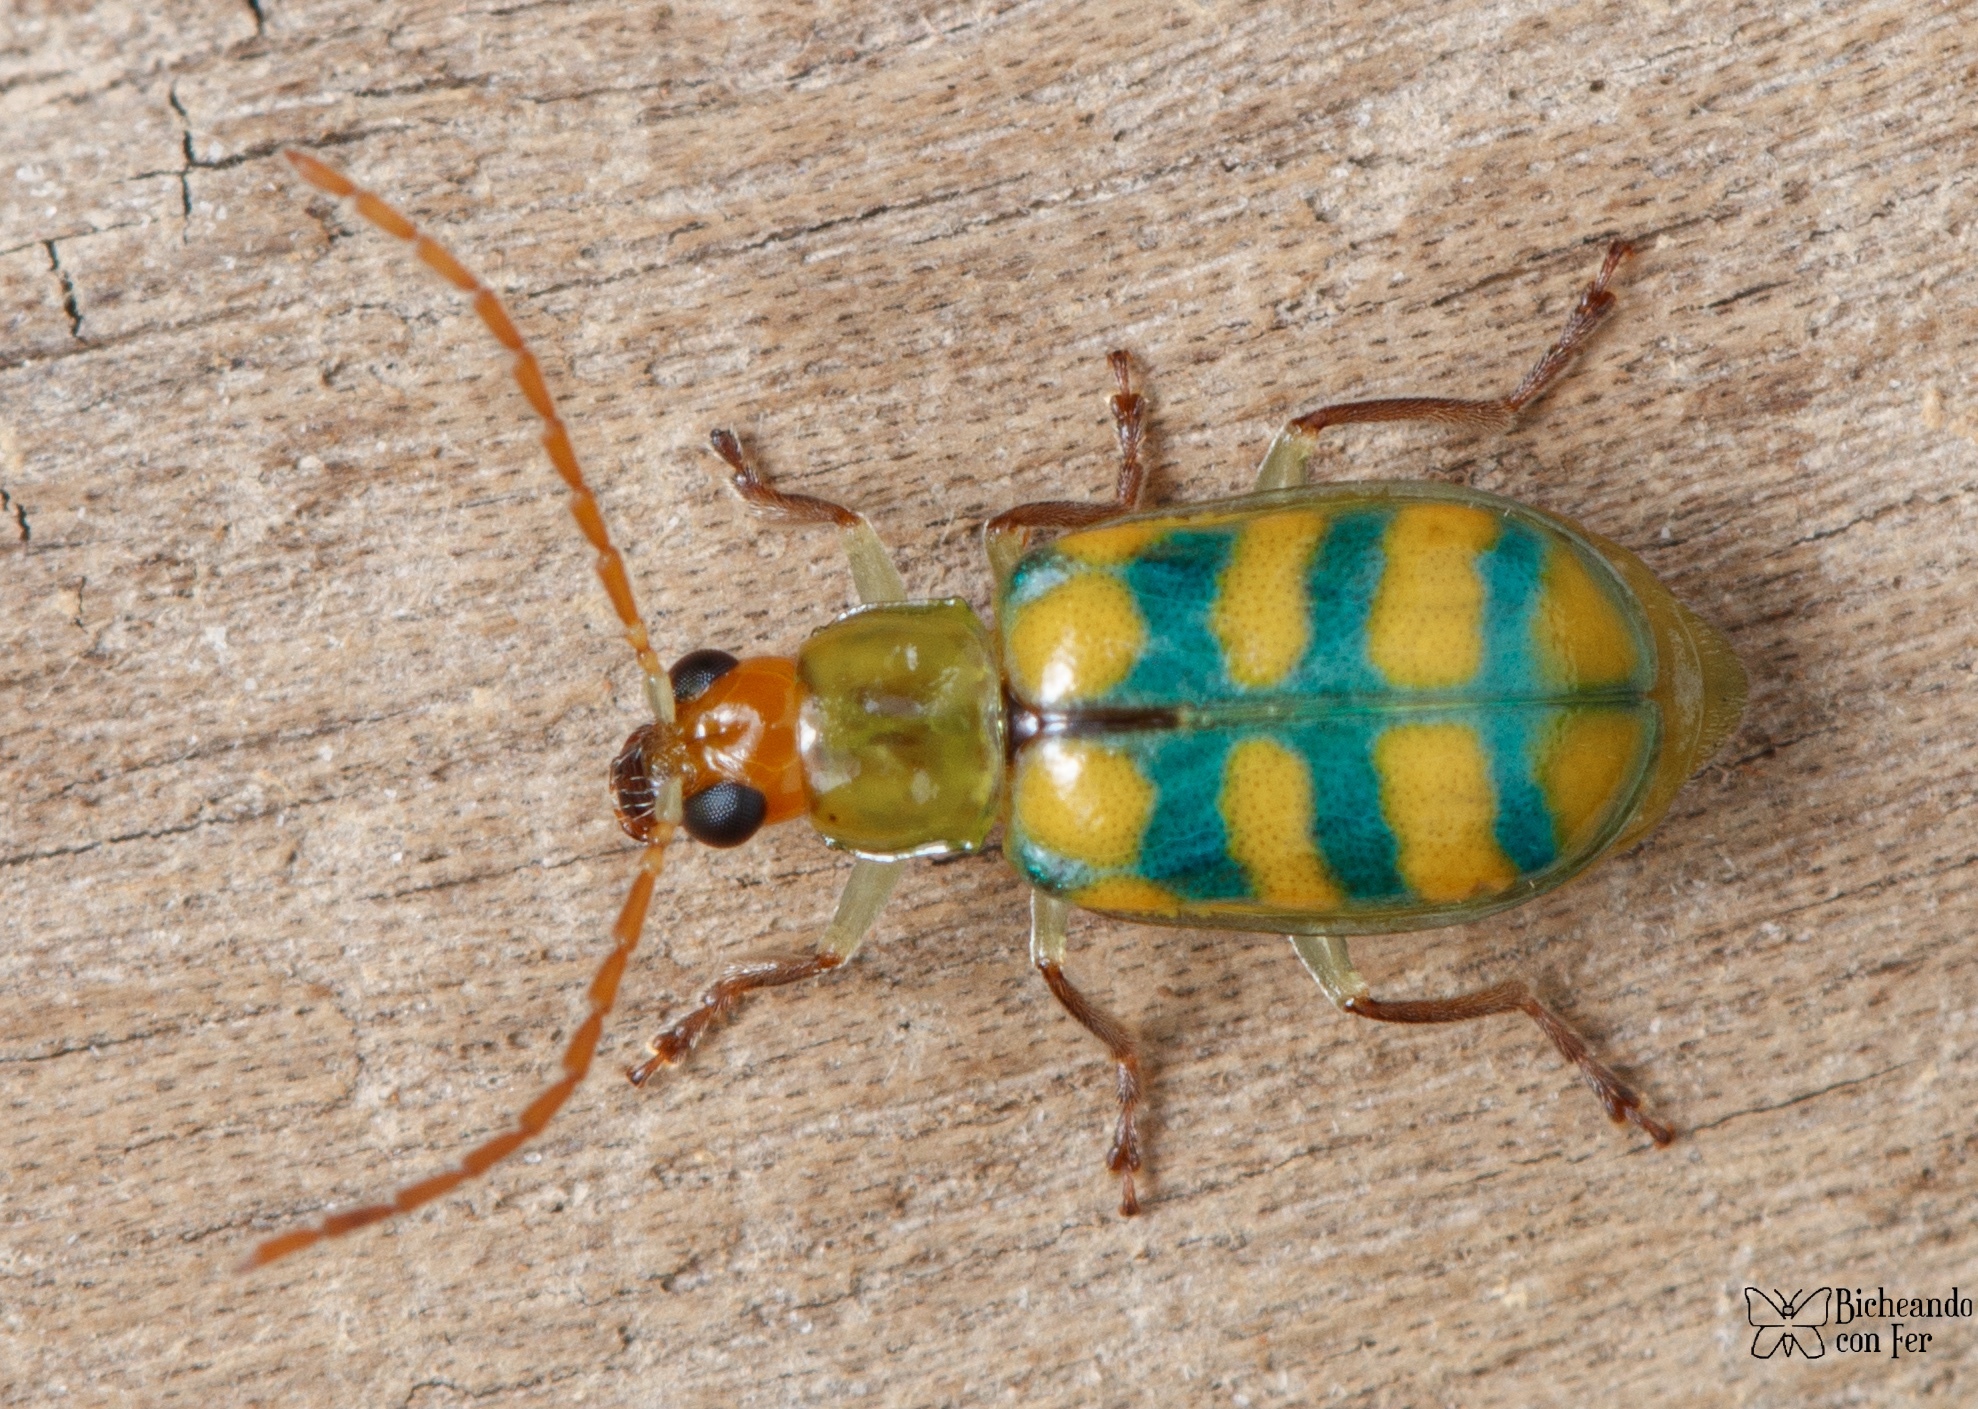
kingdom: Animalia
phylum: Arthropoda
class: Insecta
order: Coleoptera
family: Chrysomelidae
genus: Diabrotica
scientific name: Diabrotica balteata
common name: Leaf beetle
